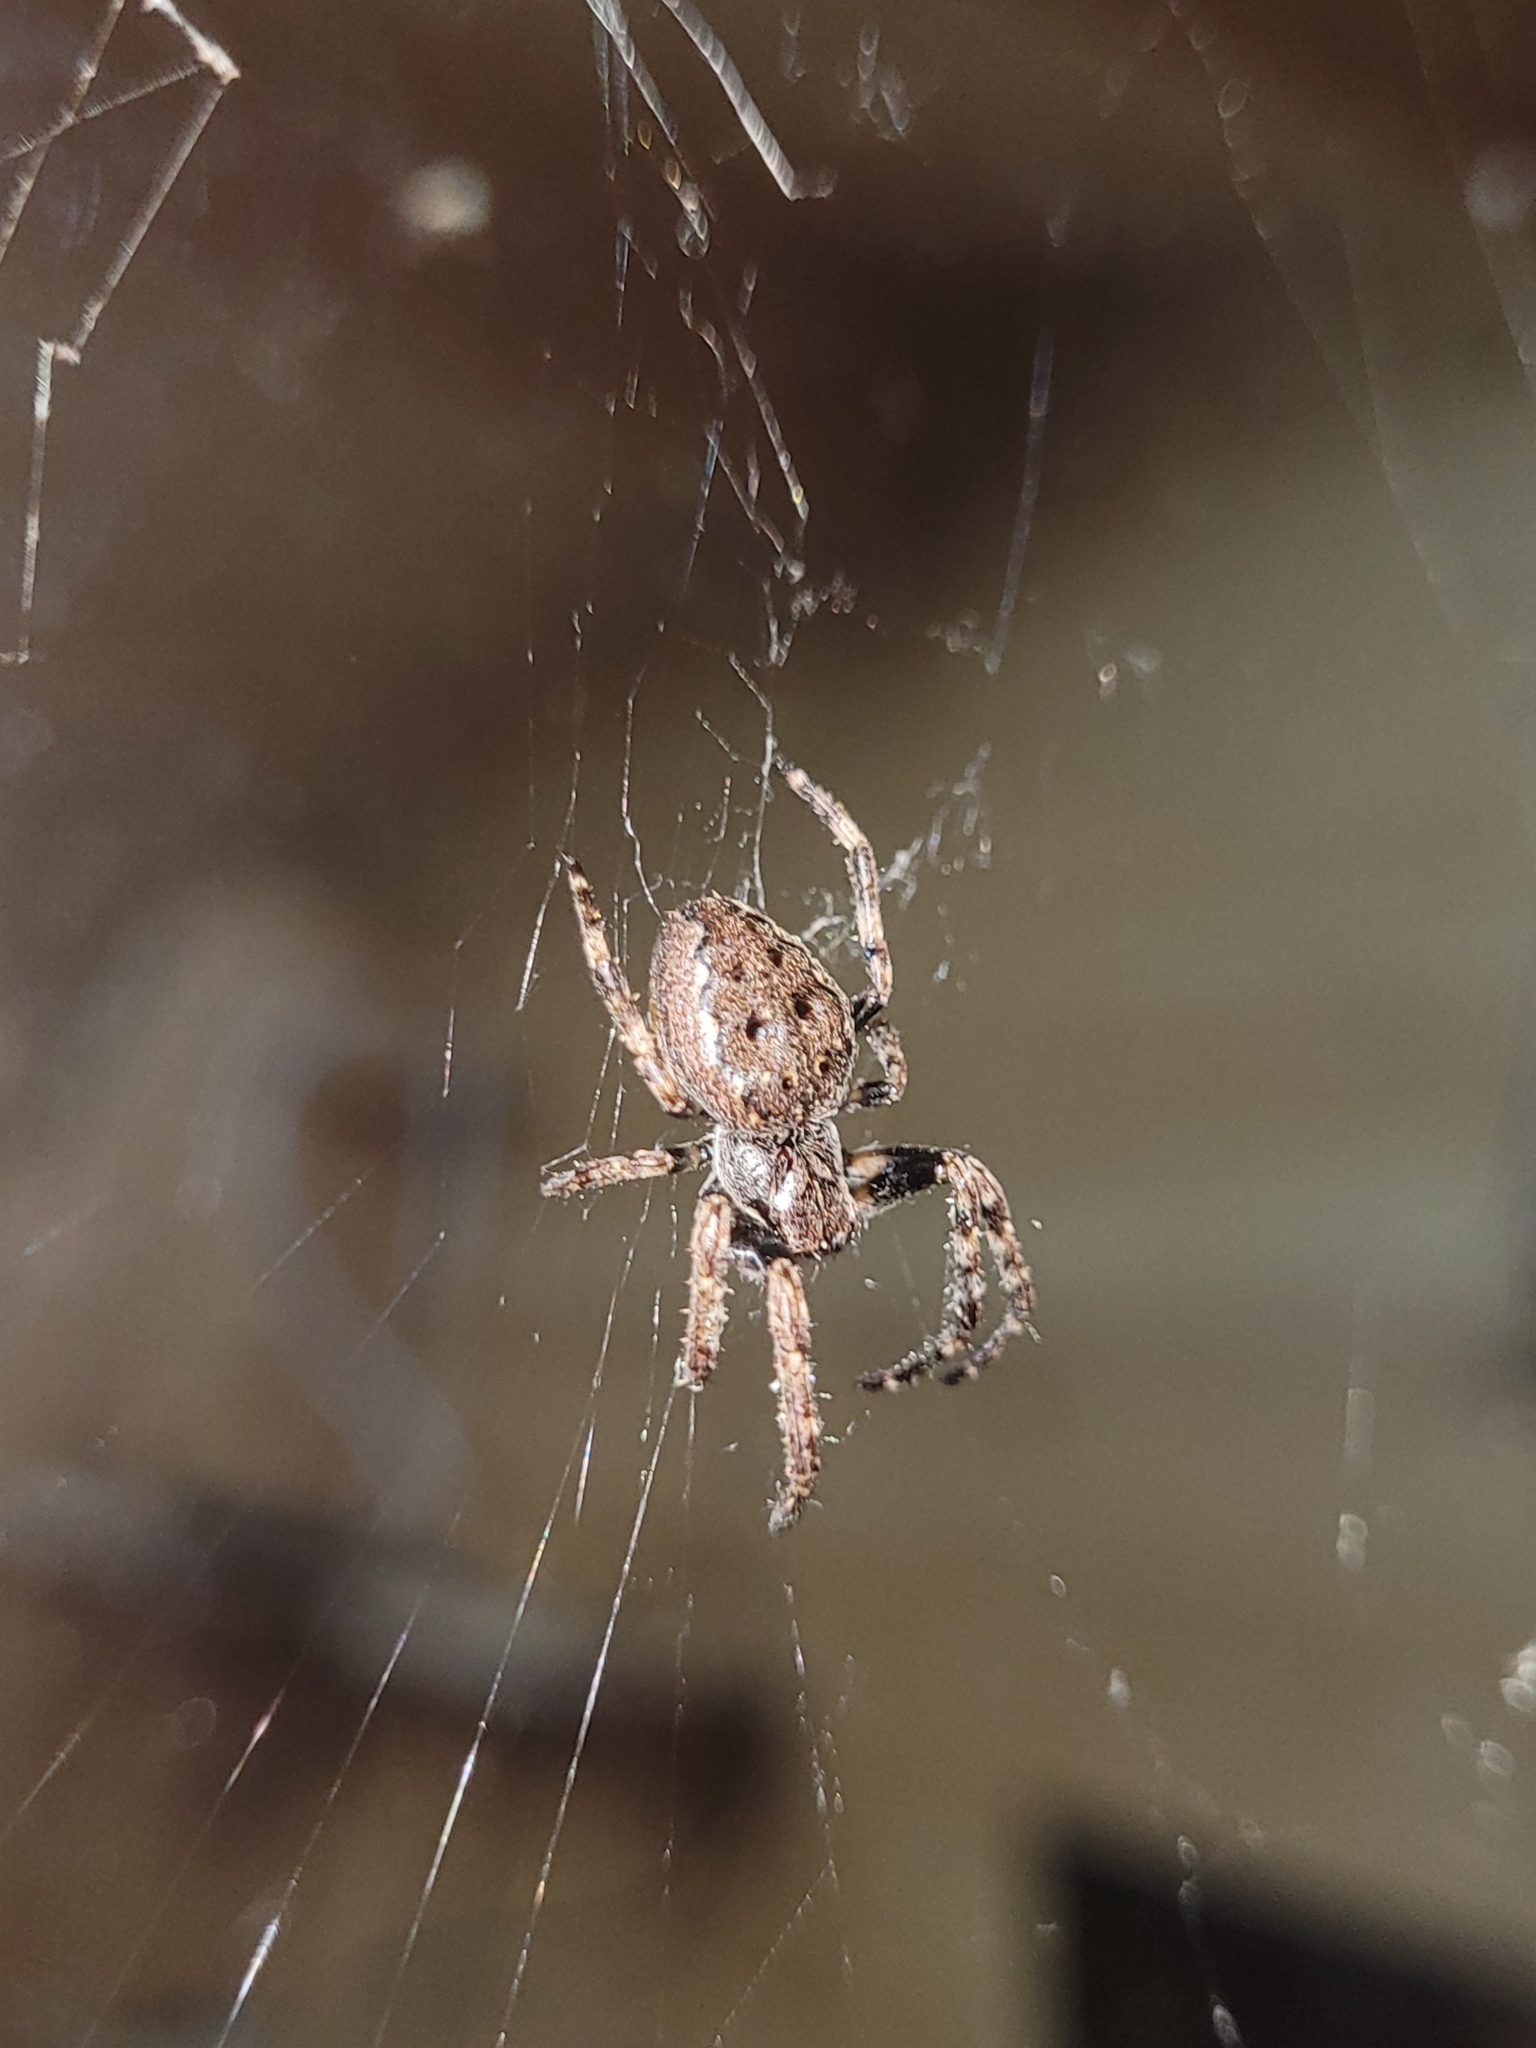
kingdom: Animalia
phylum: Arthropoda
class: Arachnida
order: Araneae
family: Araneidae
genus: Nuctenea
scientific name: Nuctenea umbratica
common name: Toad spider
